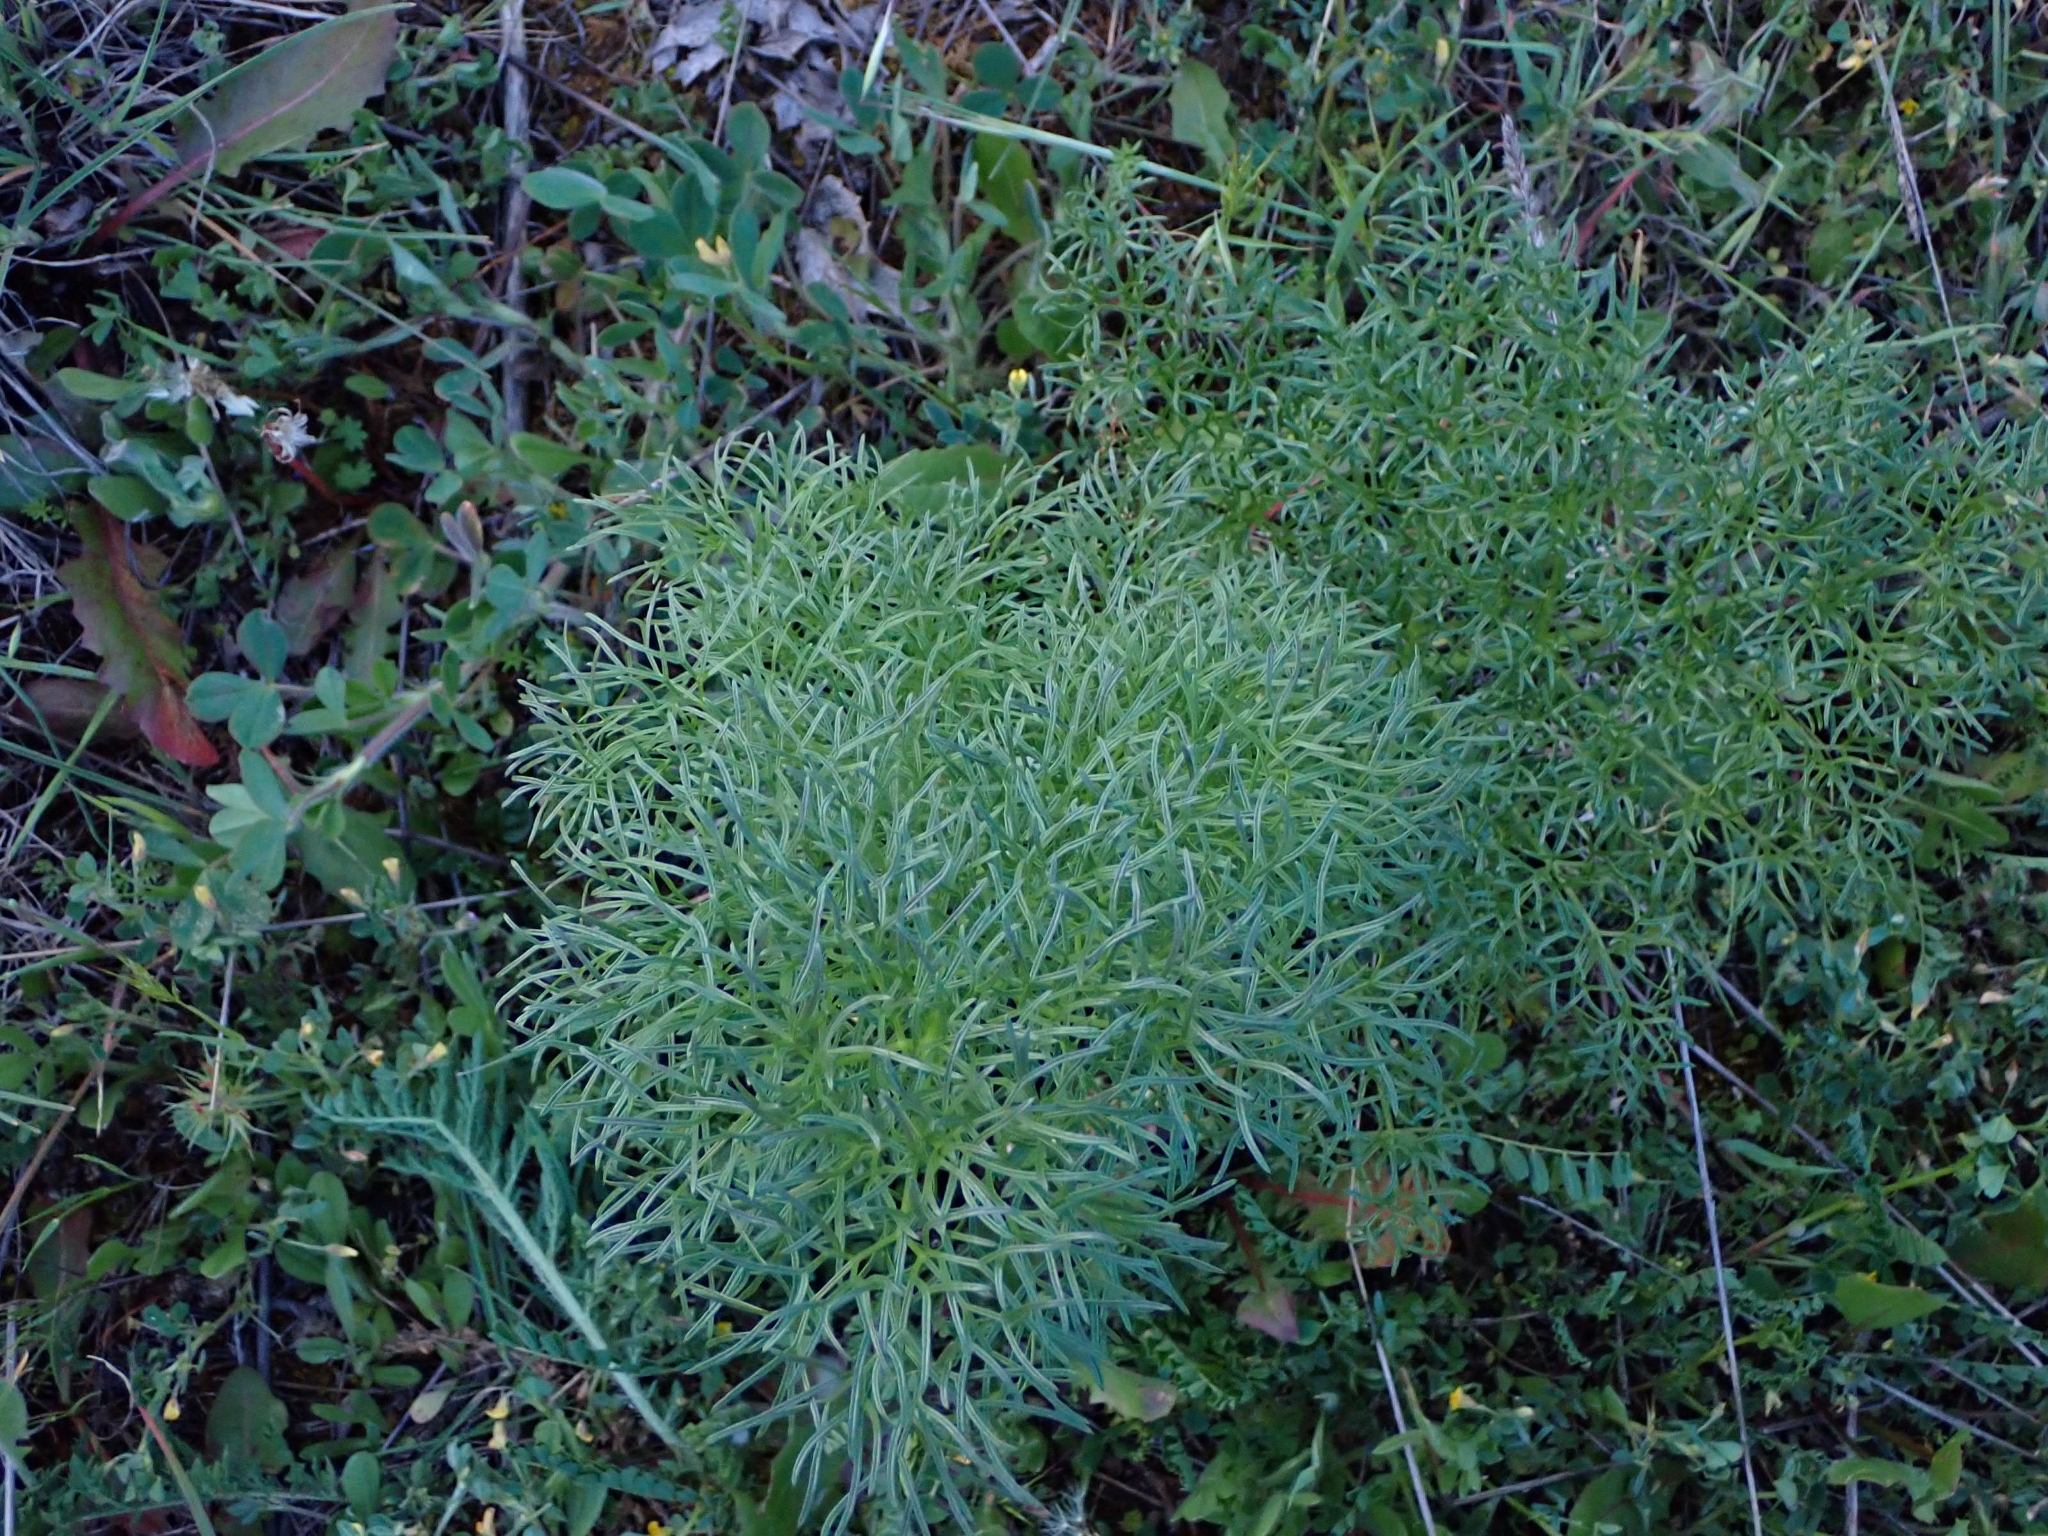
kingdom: Plantae
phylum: Tracheophyta
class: Magnoliopsida
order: Apiales
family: Apiaceae
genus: Ferula
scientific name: Ferula communis
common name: Giant fennel
